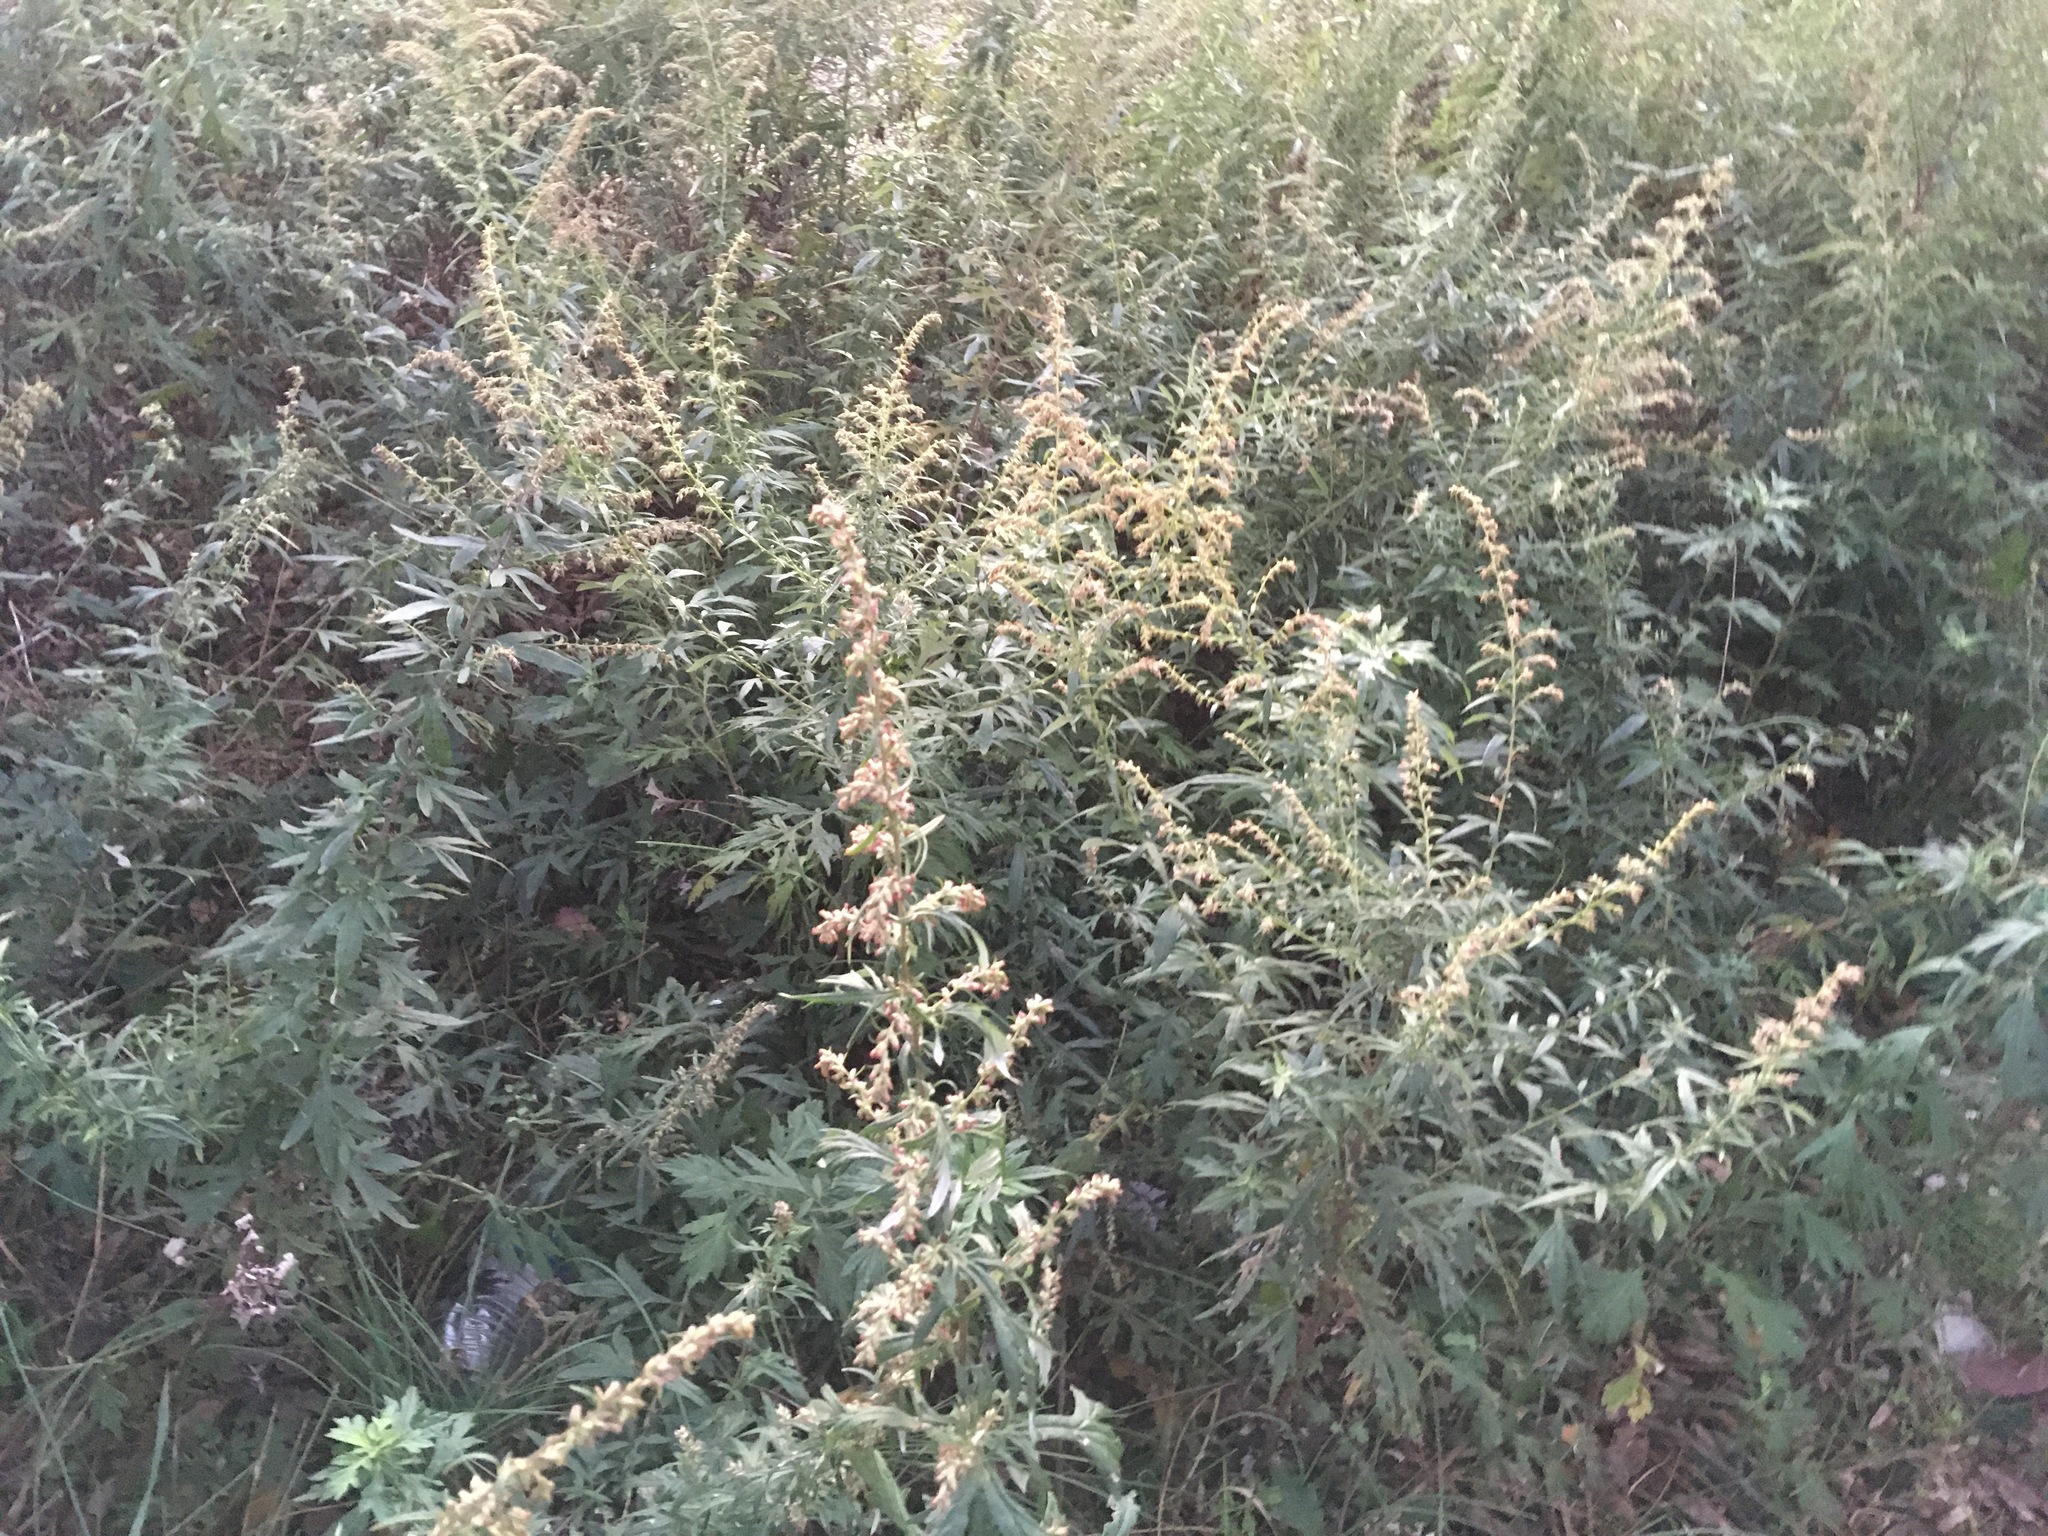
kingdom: Plantae
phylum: Tracheophyta
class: Magnoliopsida
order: Asterales
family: Asteraceae
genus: Artemisia
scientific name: Artemisia vulgaris
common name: Mugwort
